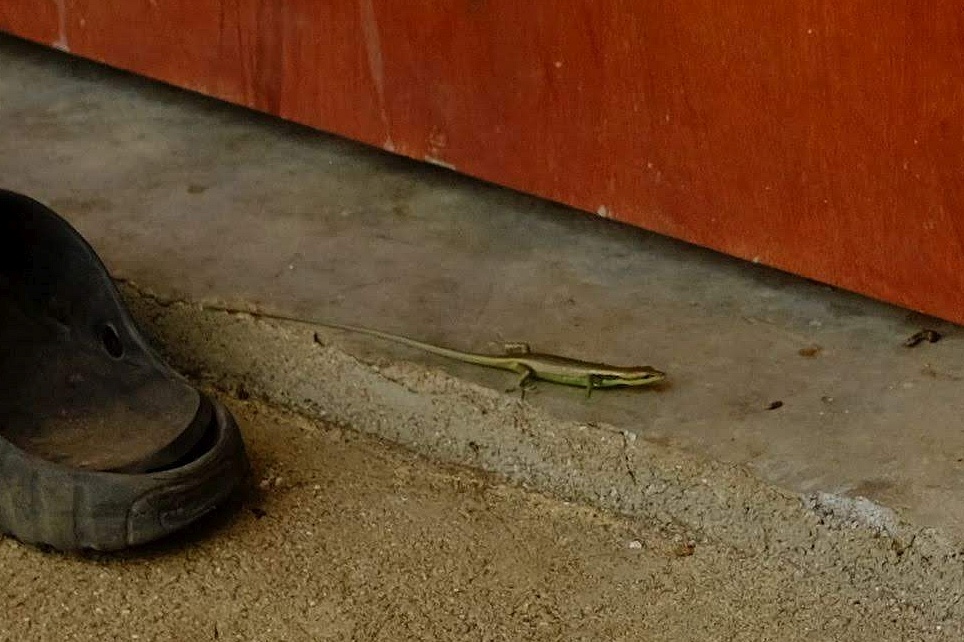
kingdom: Animalia
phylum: Chordata
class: Squamata
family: Scincidae
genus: Emoia
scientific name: Emoia cyanogaster
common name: Teal emo skink
